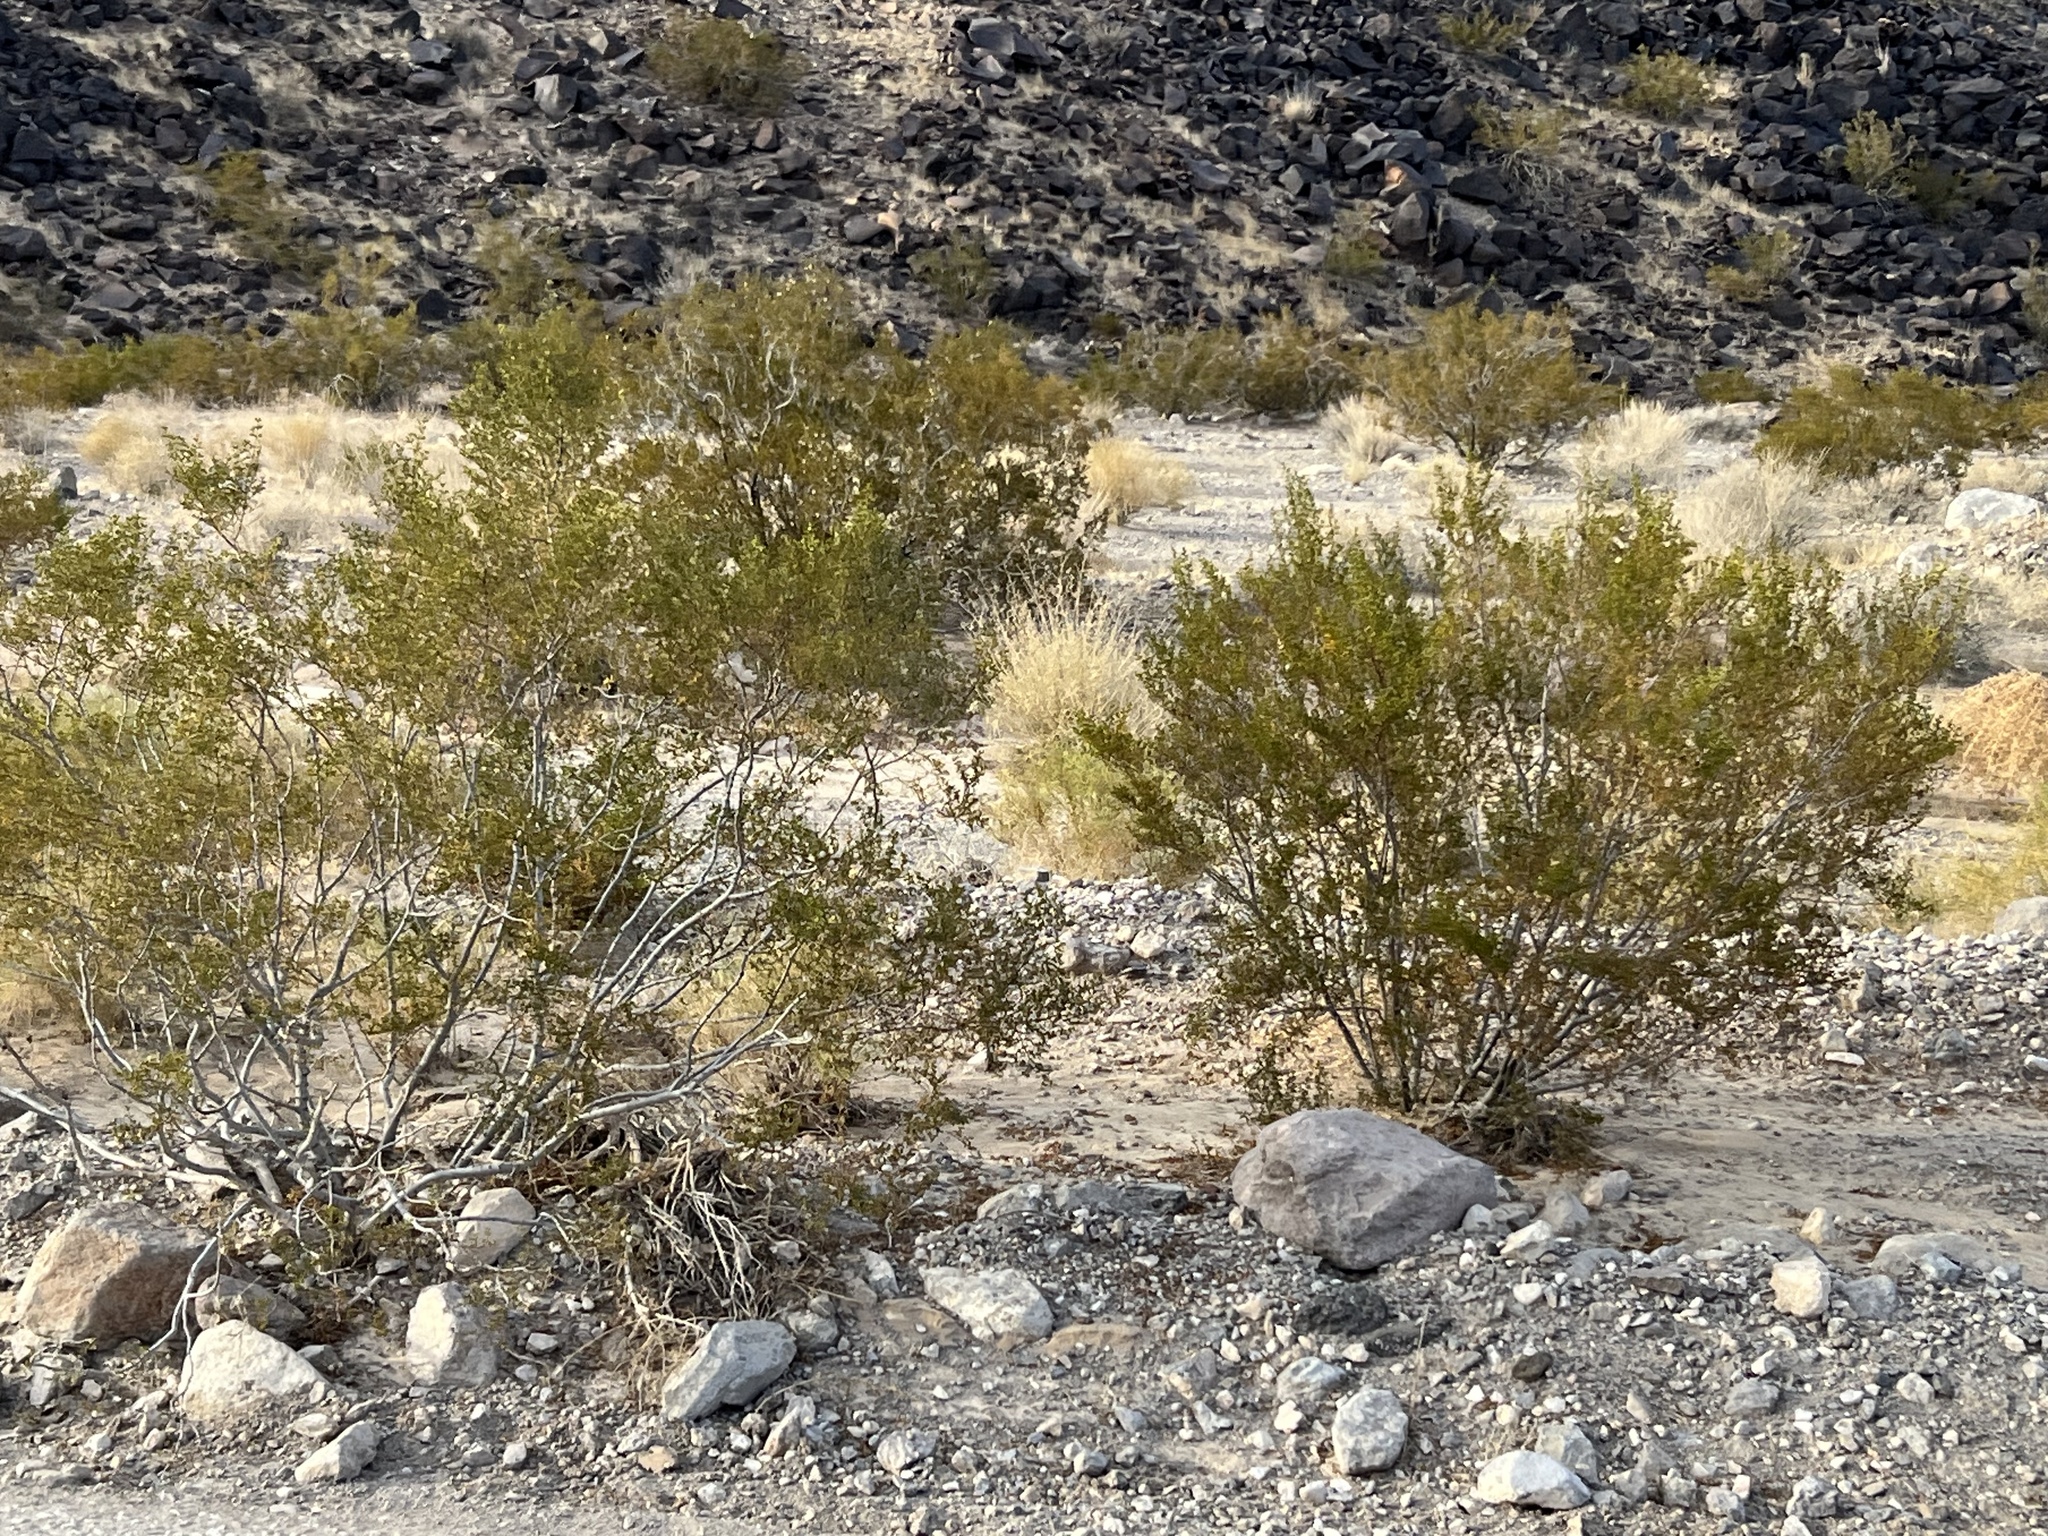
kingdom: Plantae
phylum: Tracheophyta
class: Magnoliopsida
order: Zygophyllales
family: Zygophyllaceae
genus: Larrea
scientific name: Larrea tridentata
